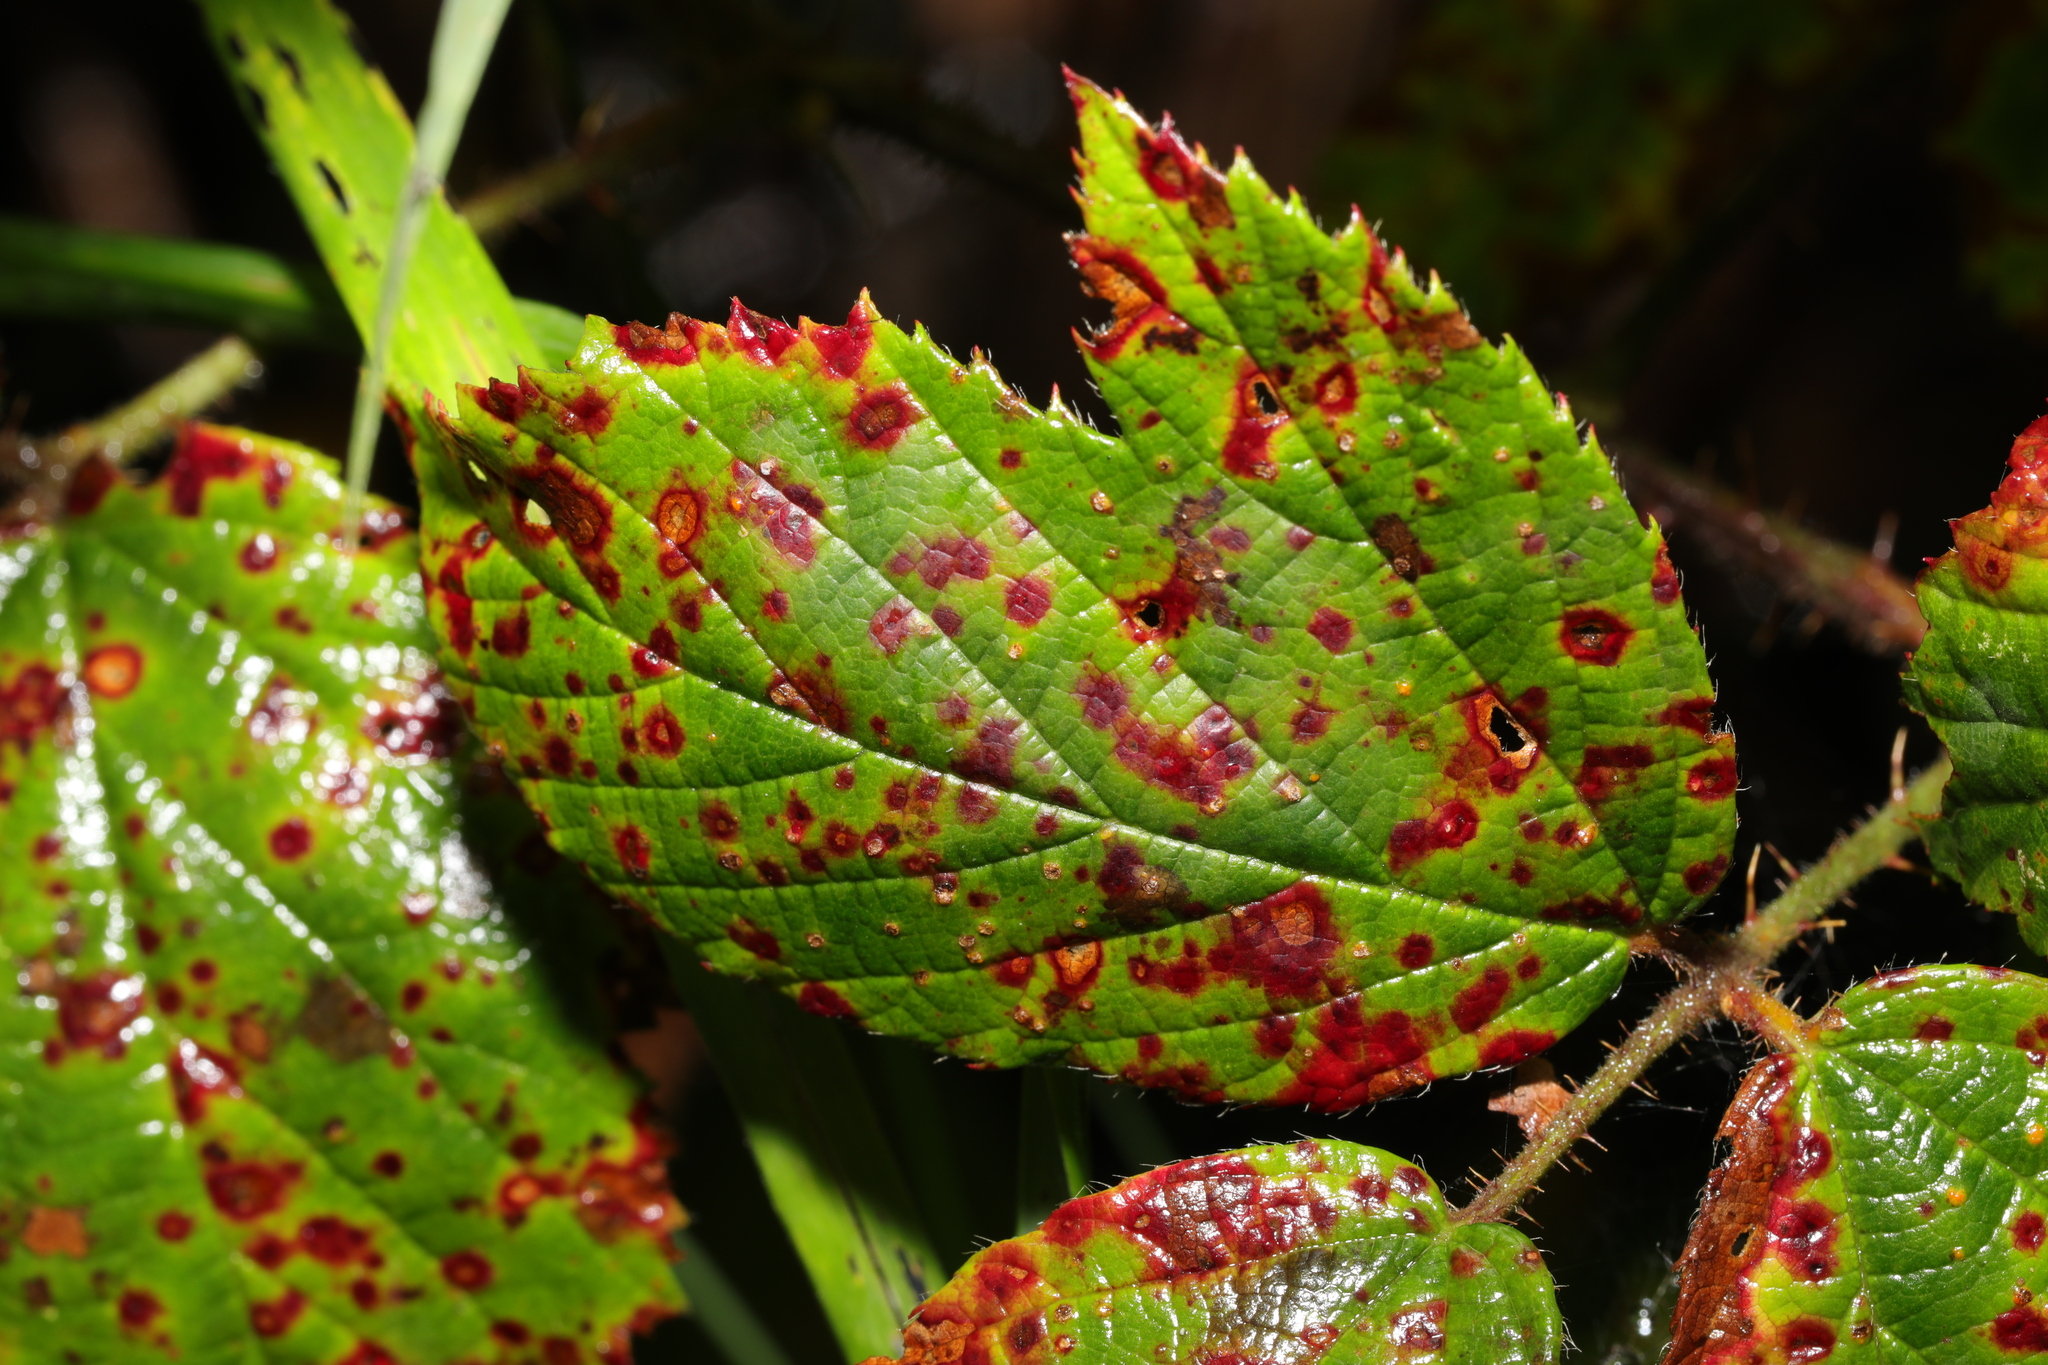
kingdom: Fungi
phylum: Basidiomycota
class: Pucciniomycetes
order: Pucciniales
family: Phragmidiaceae
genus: Phragmidium
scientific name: Phragmidium violaceum
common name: Violet bramble rust
